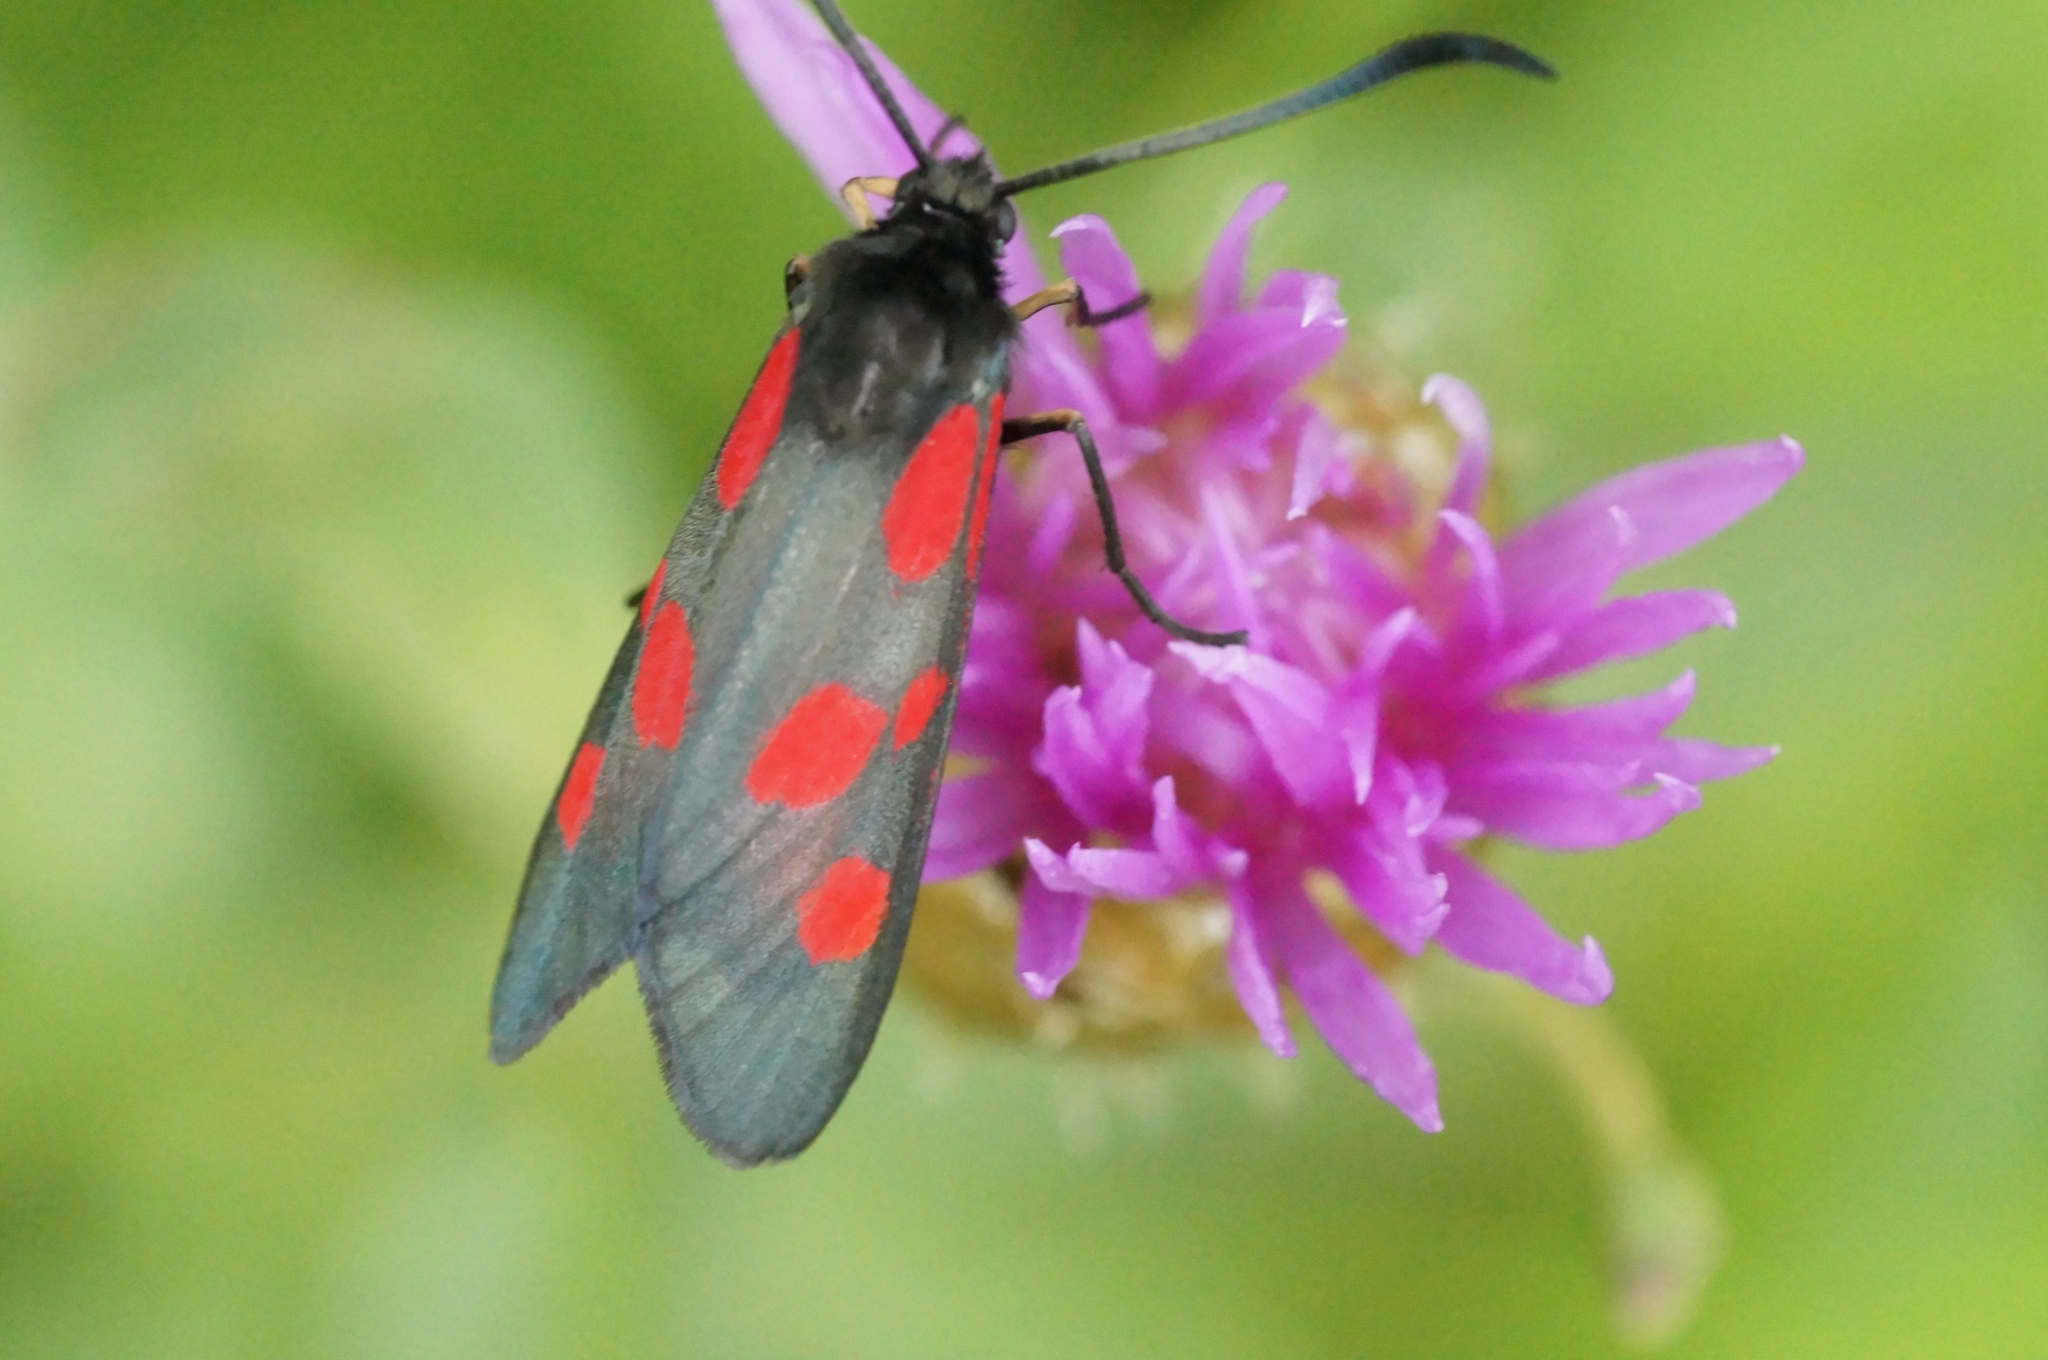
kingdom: Animalia
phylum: Arthropoda
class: Insecta
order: Lepidoptera
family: Zygaenidae
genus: Zygaena
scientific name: Zygaena viciae
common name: New forest burnet
